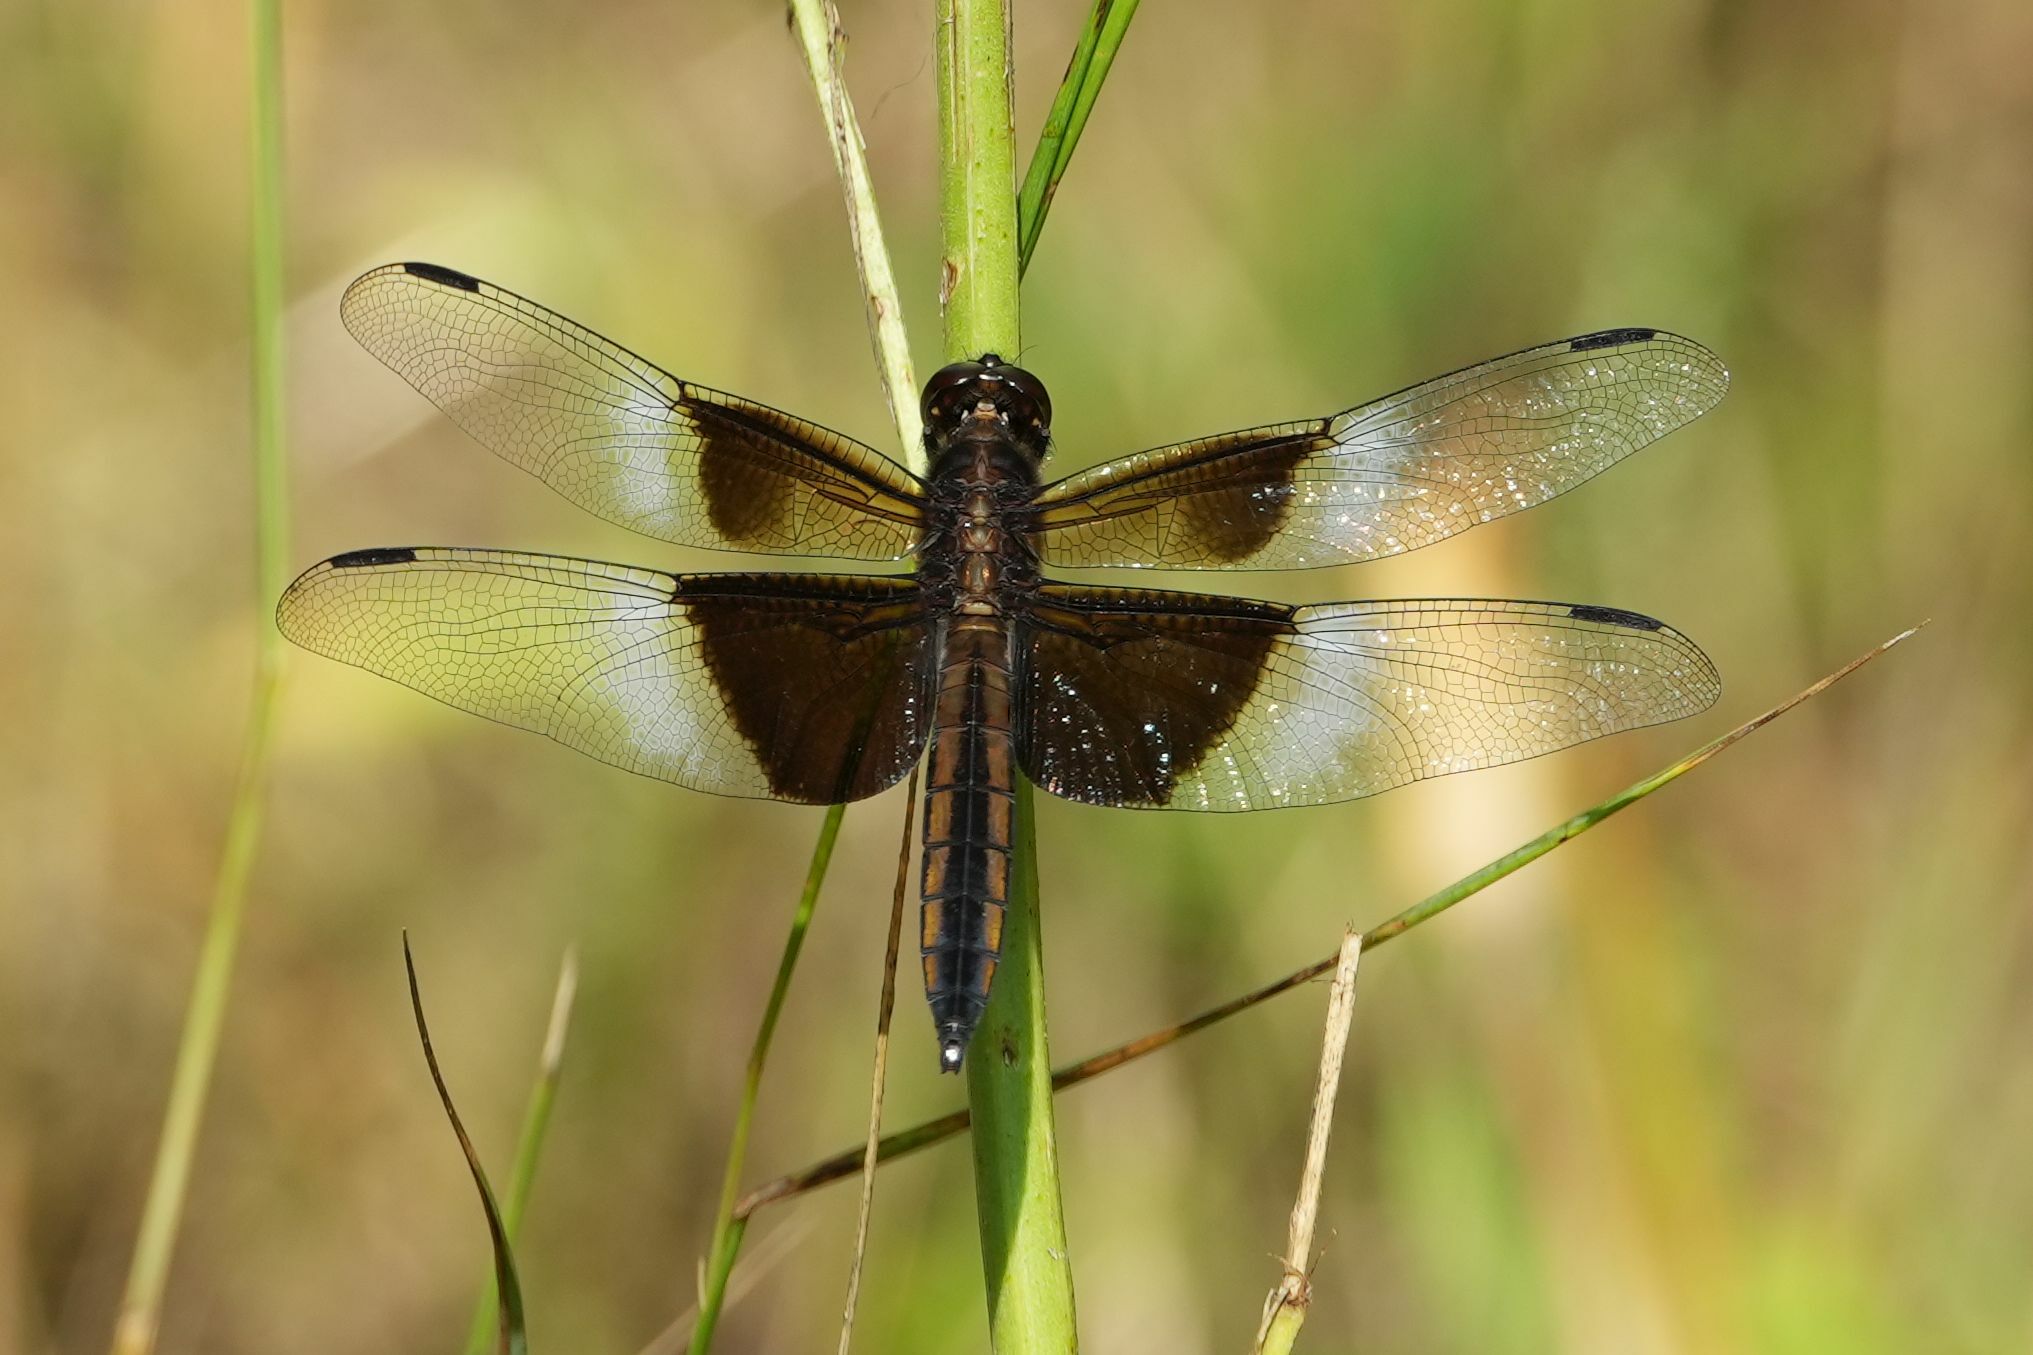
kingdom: Animalia
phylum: Arthropoda
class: Insecta
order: Odonata
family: Libellulidae
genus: Libellula
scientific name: Libellula luctuosa
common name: Widow skimmer
